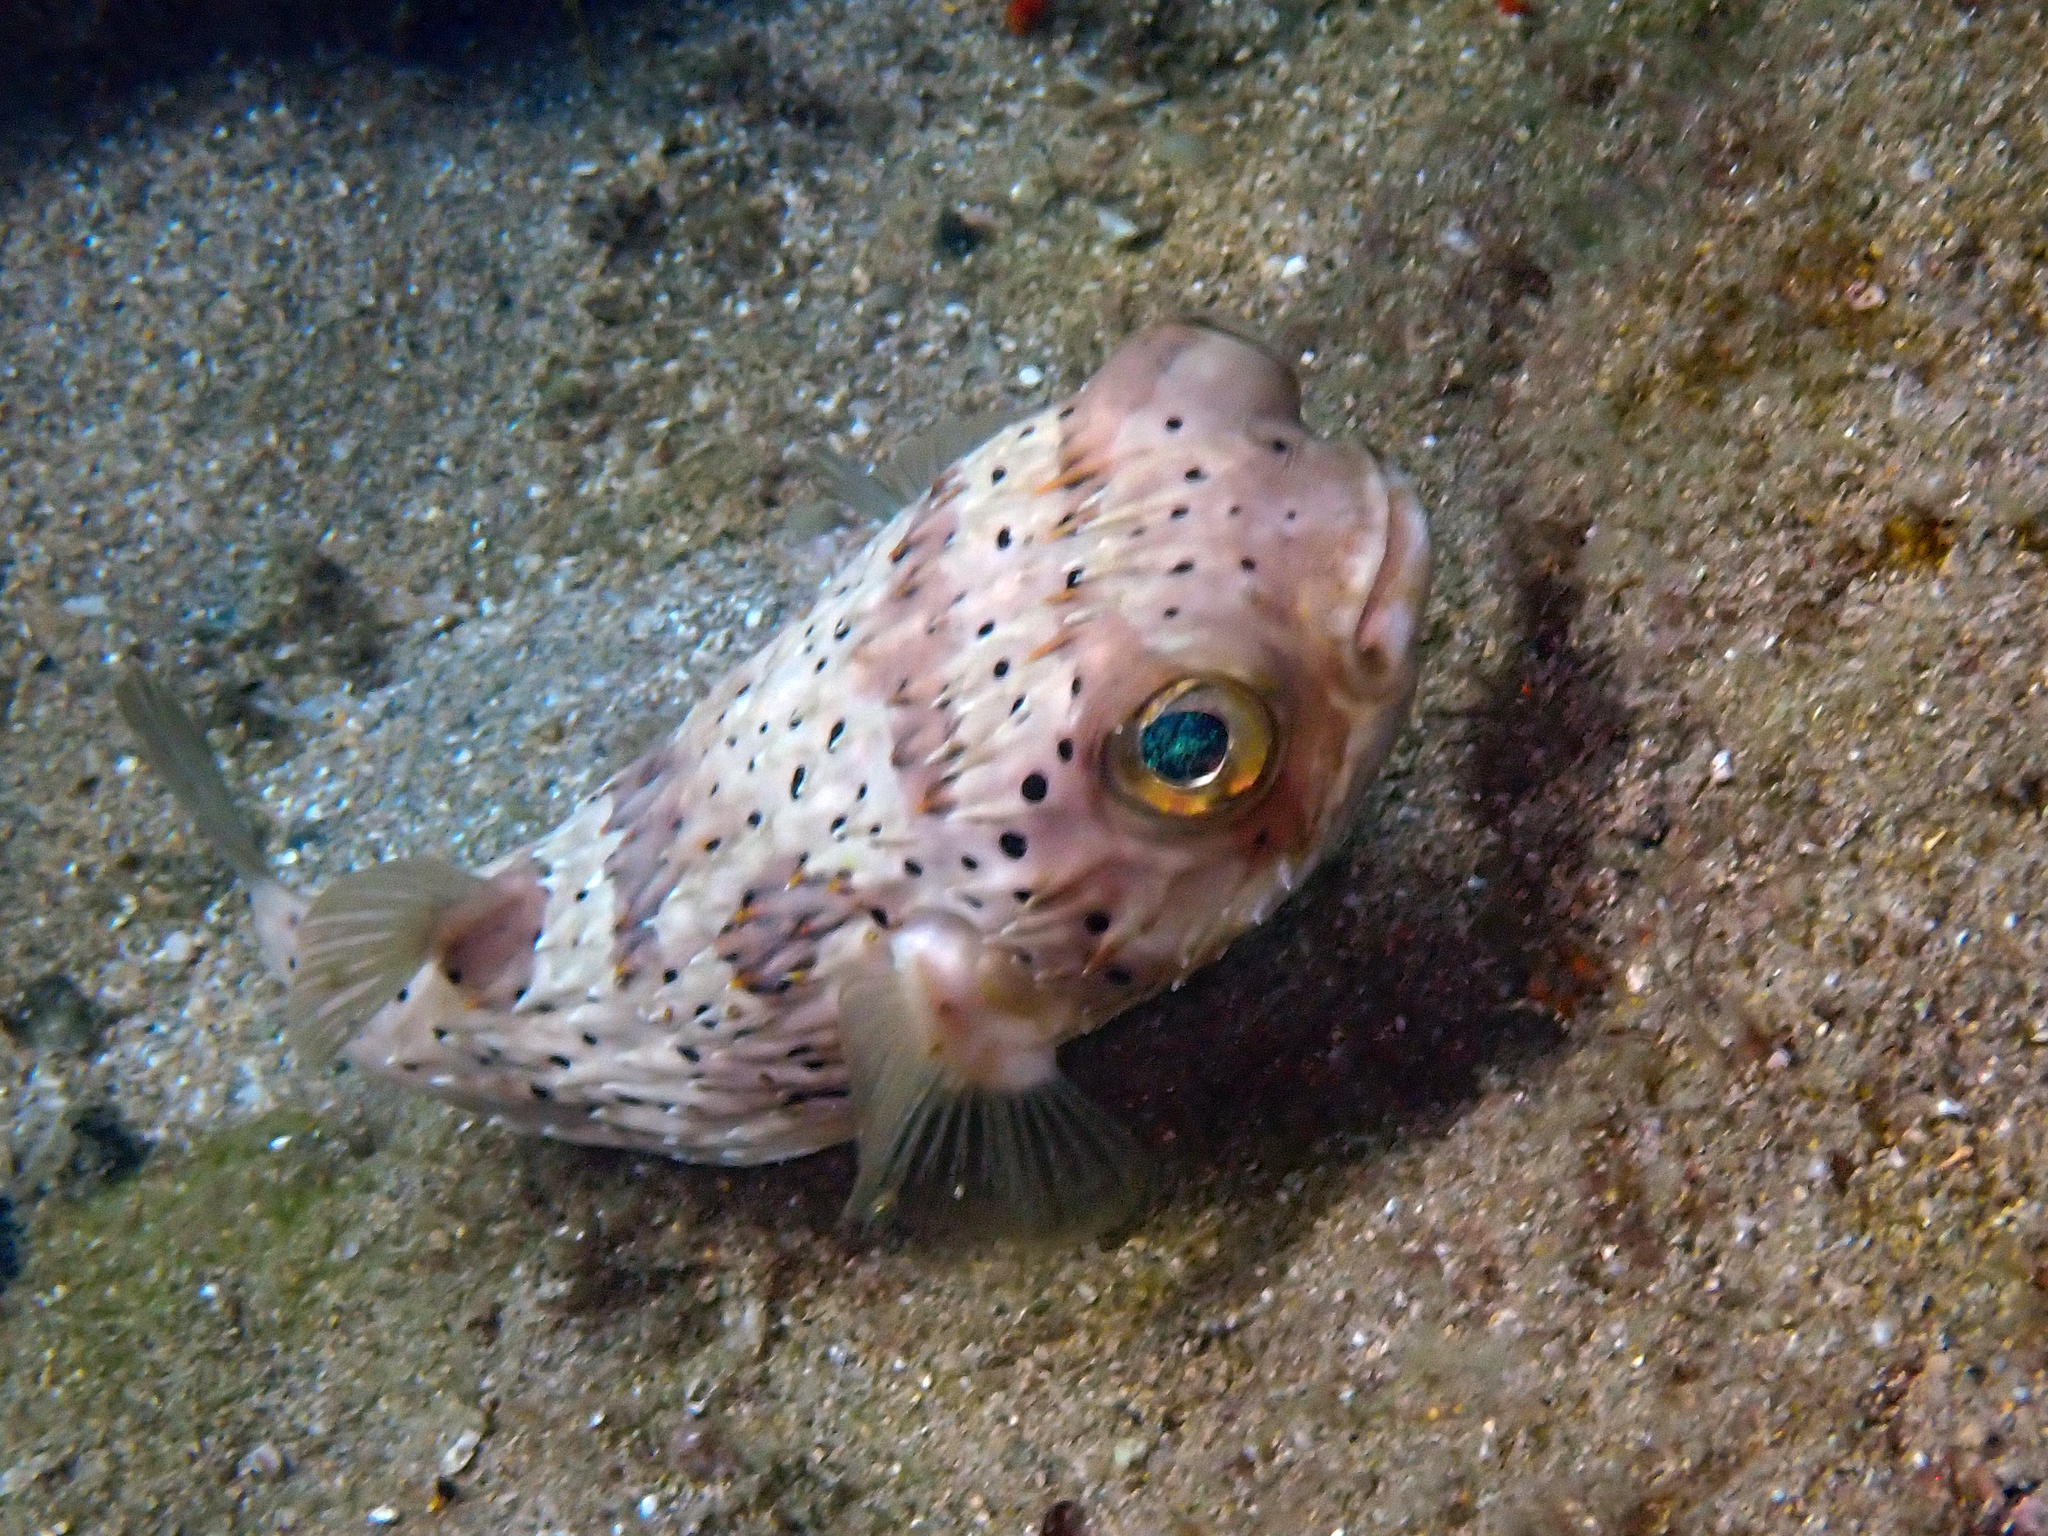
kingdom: Animalia
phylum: Chordata
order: Tetraodontiformes
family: Diodontidae
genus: Diodon
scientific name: Diodon holocanthus
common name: Balloonfish
